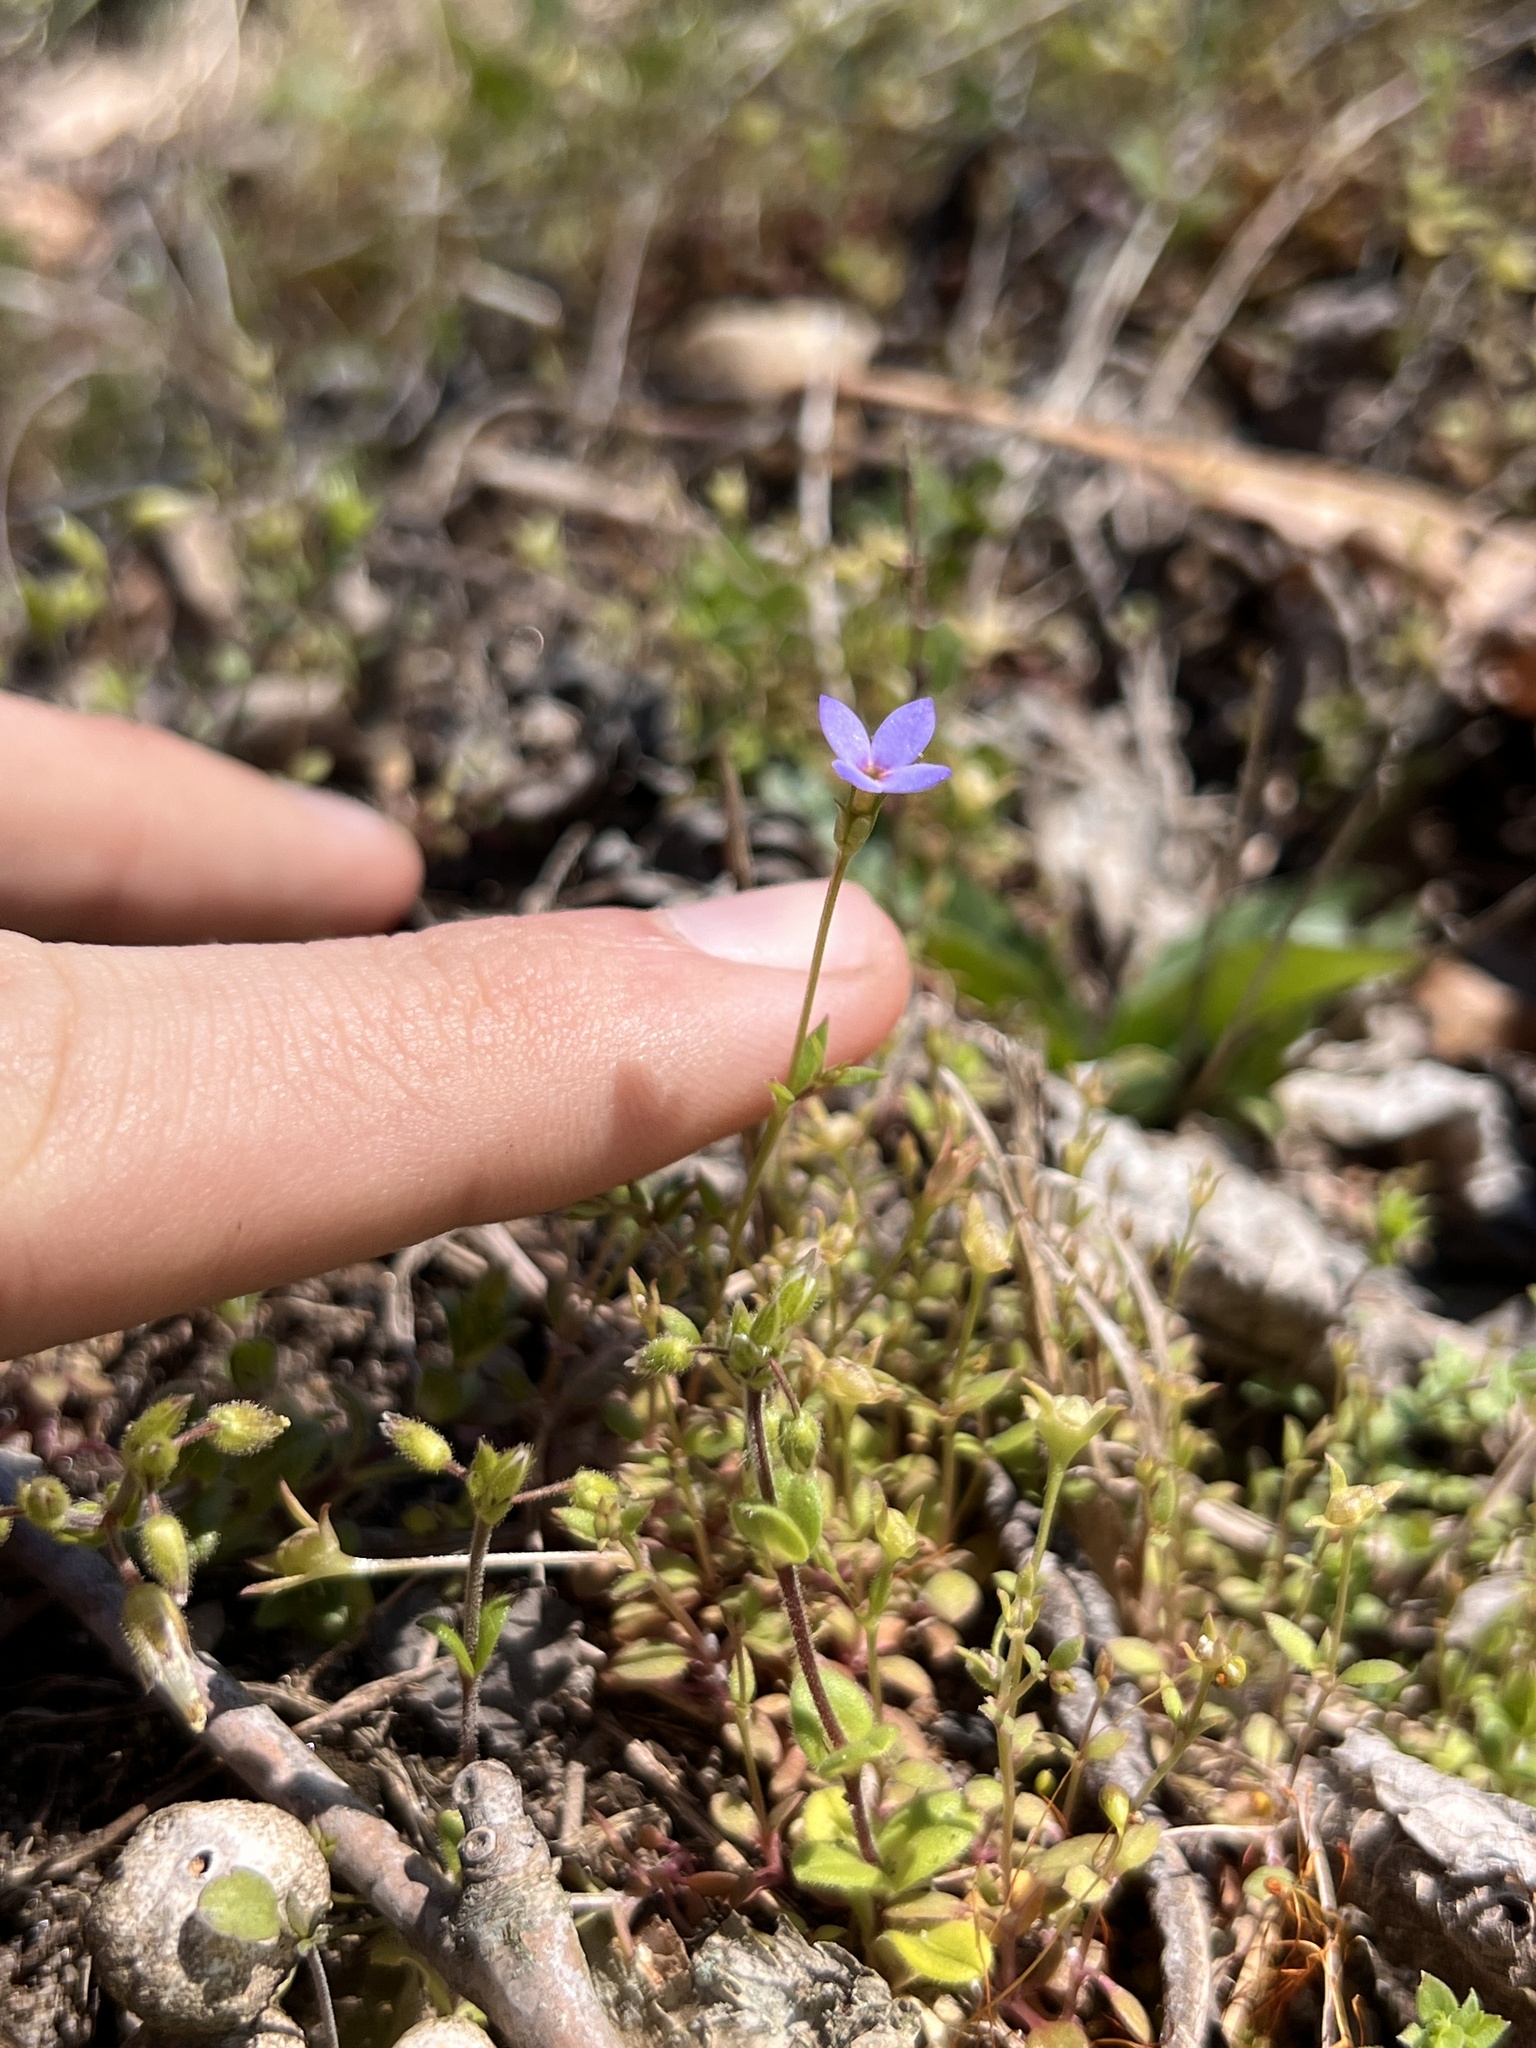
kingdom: Plantae
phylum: Tracheophyta
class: Magnoliopsida
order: Gentianales
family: Rubiaceae
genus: Houstonia
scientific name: Houstonia pusilla
